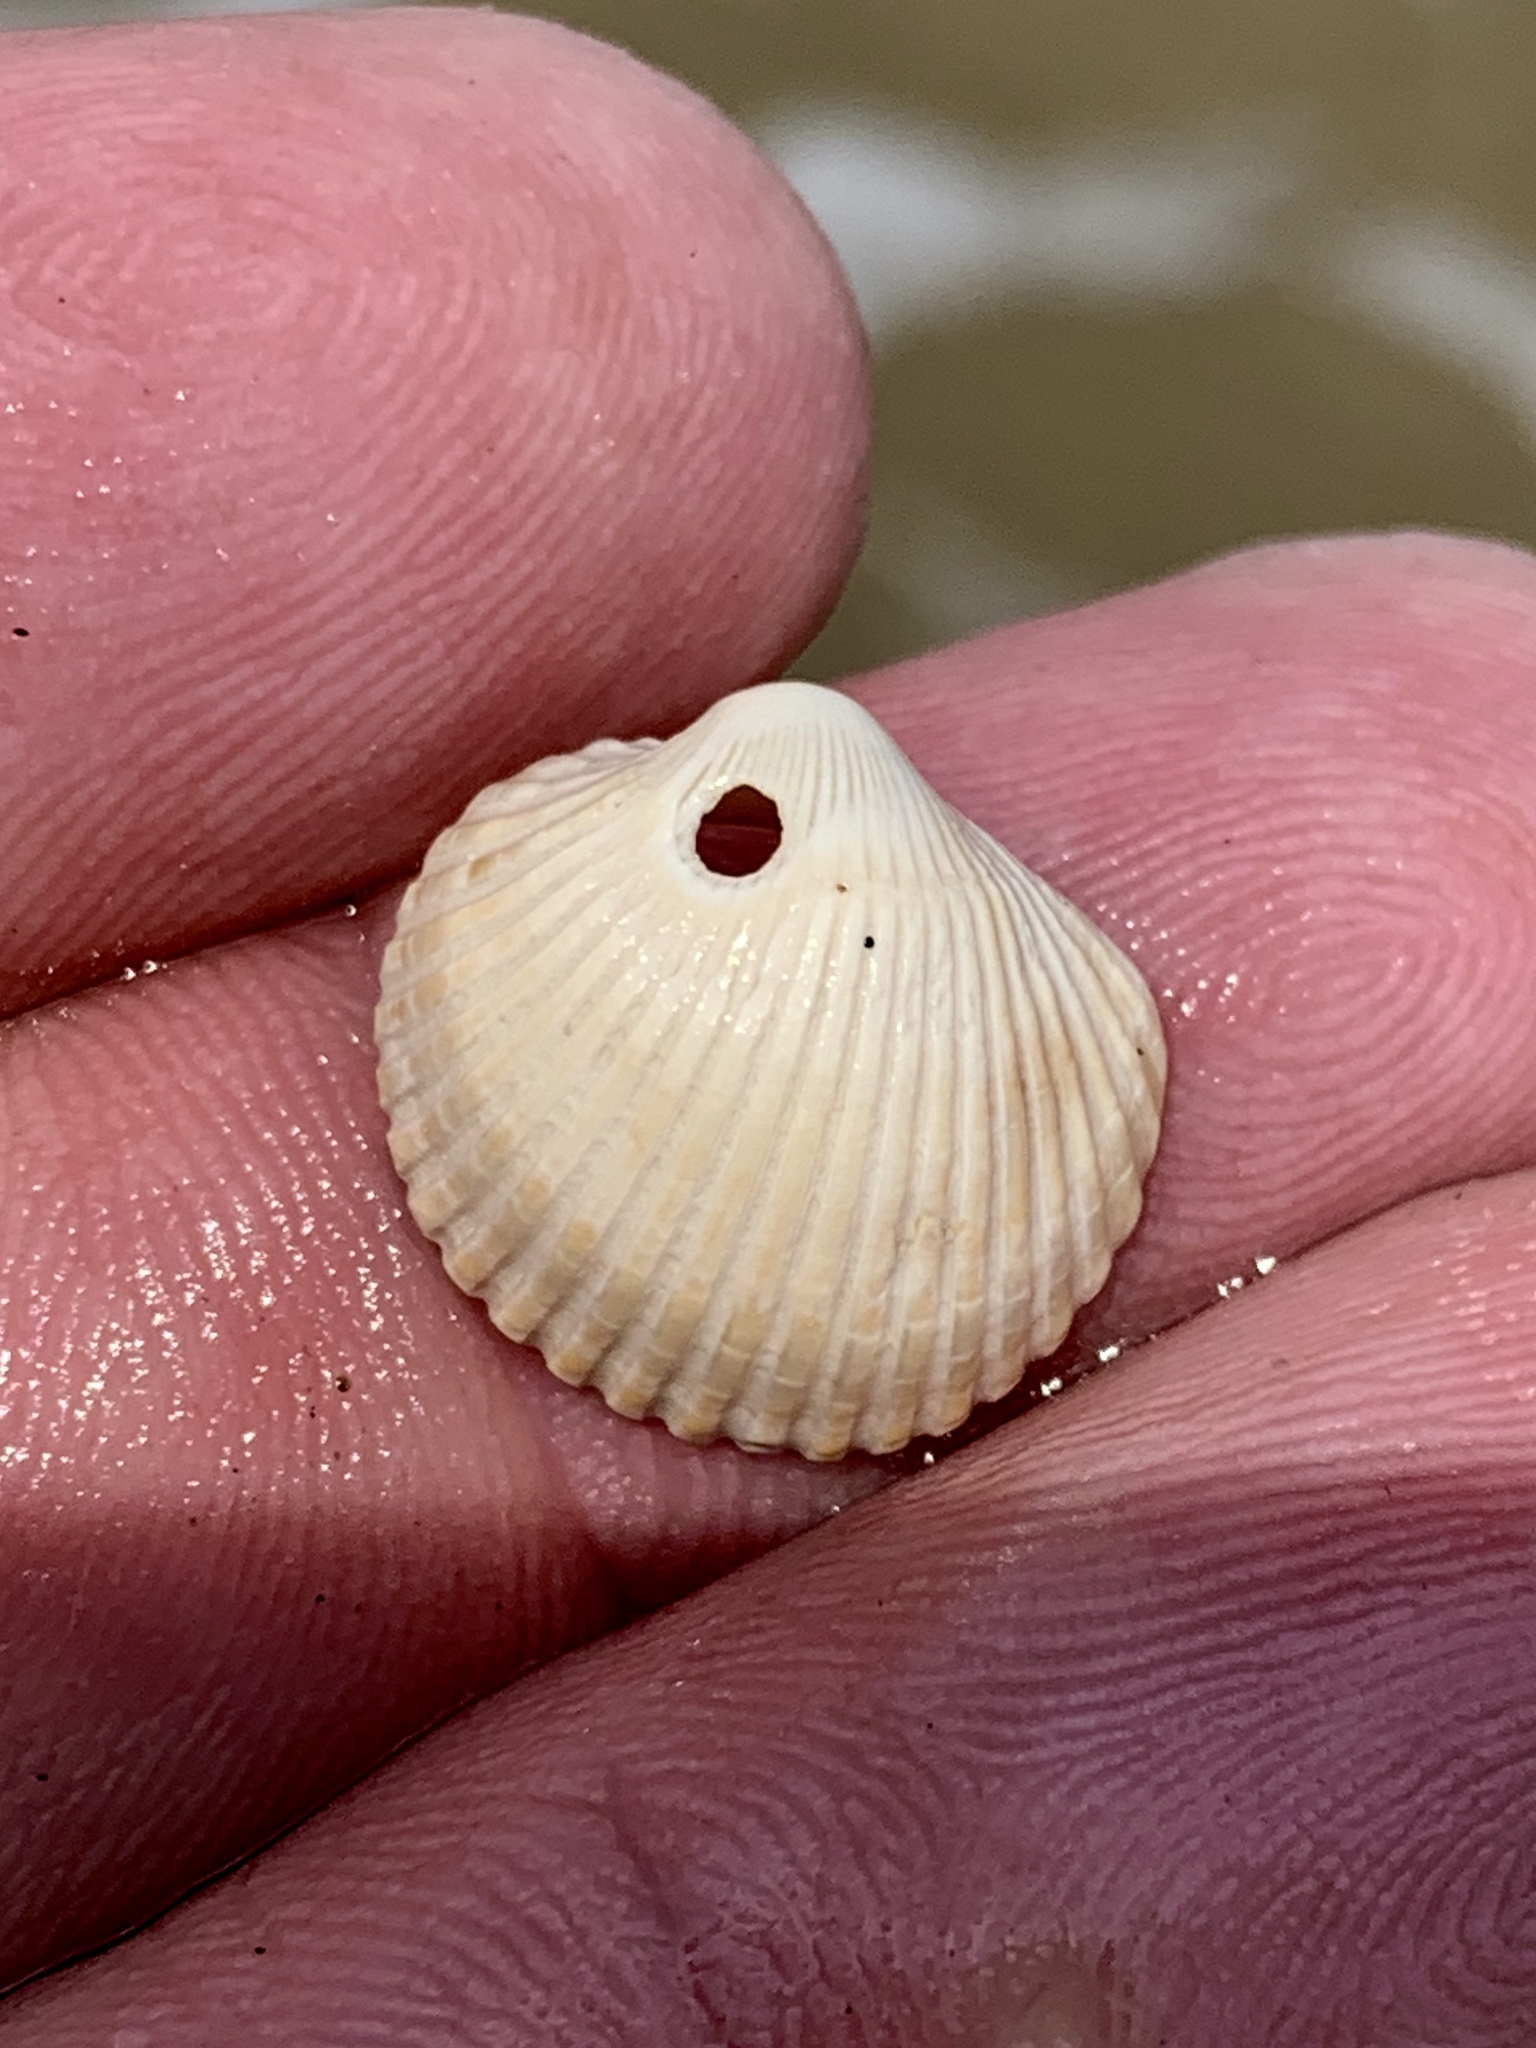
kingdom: Animalia
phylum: Mollusca
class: Bivalvia
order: Arcida
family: Arcidae
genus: Lunarca
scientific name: Lunarca ovalis
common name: Blood ark
